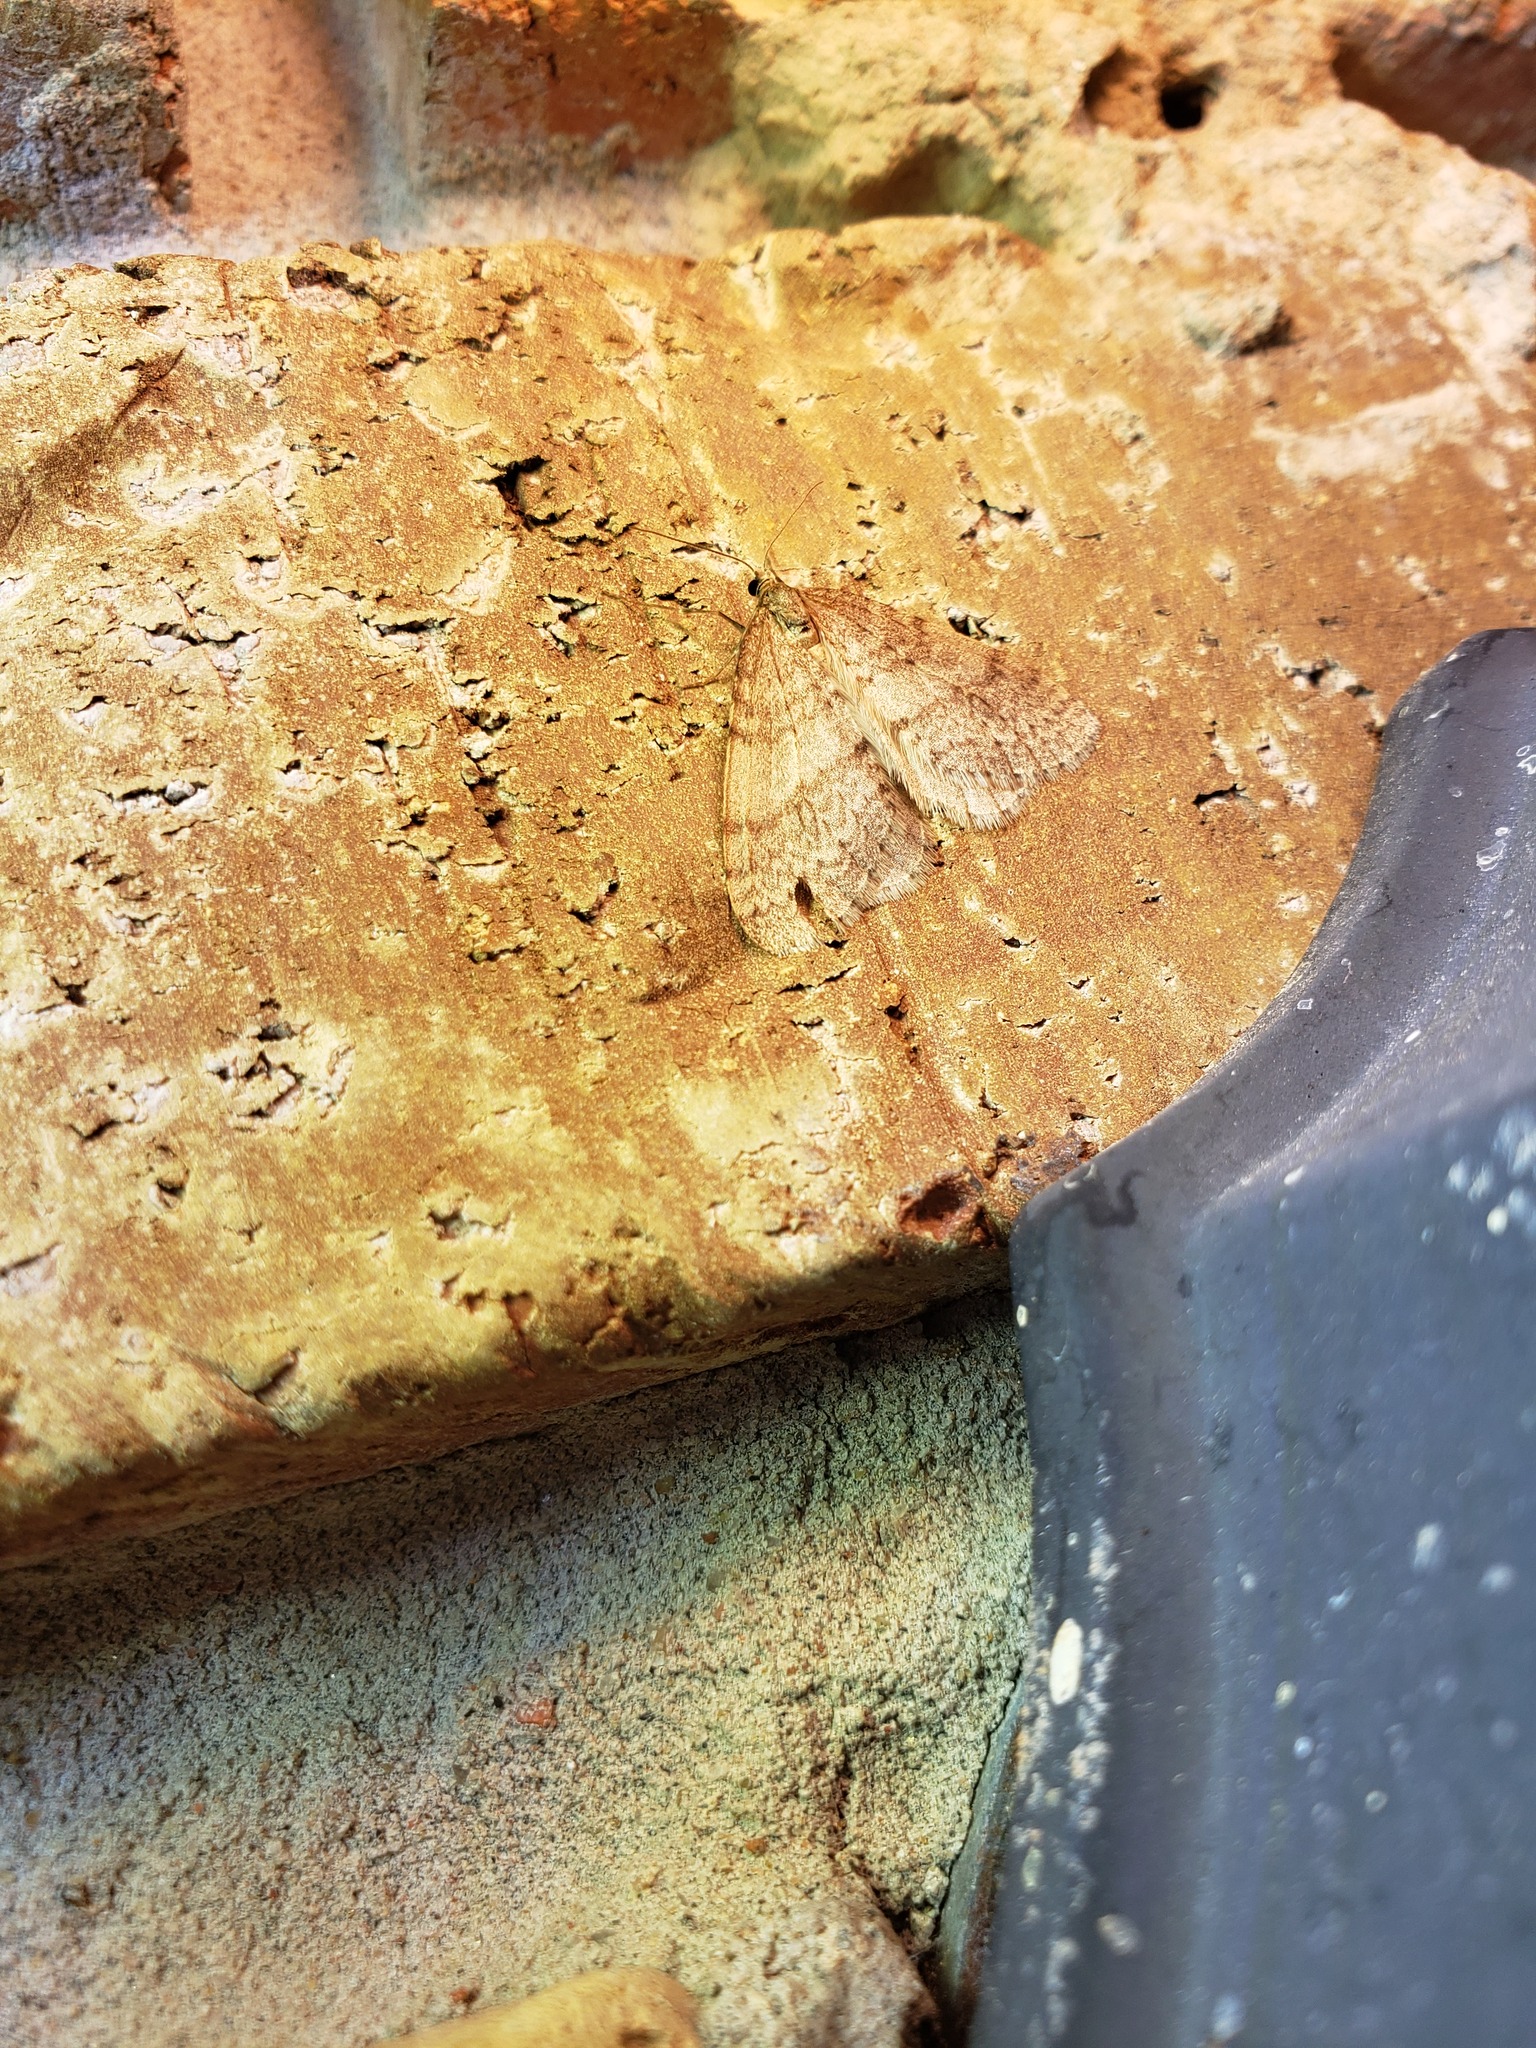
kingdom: Animalia
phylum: Arthropoda
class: Insecta
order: Lepidoptera
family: Geometridae
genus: Operophtera
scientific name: Operophtera bruceata
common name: Bruce spanworm
